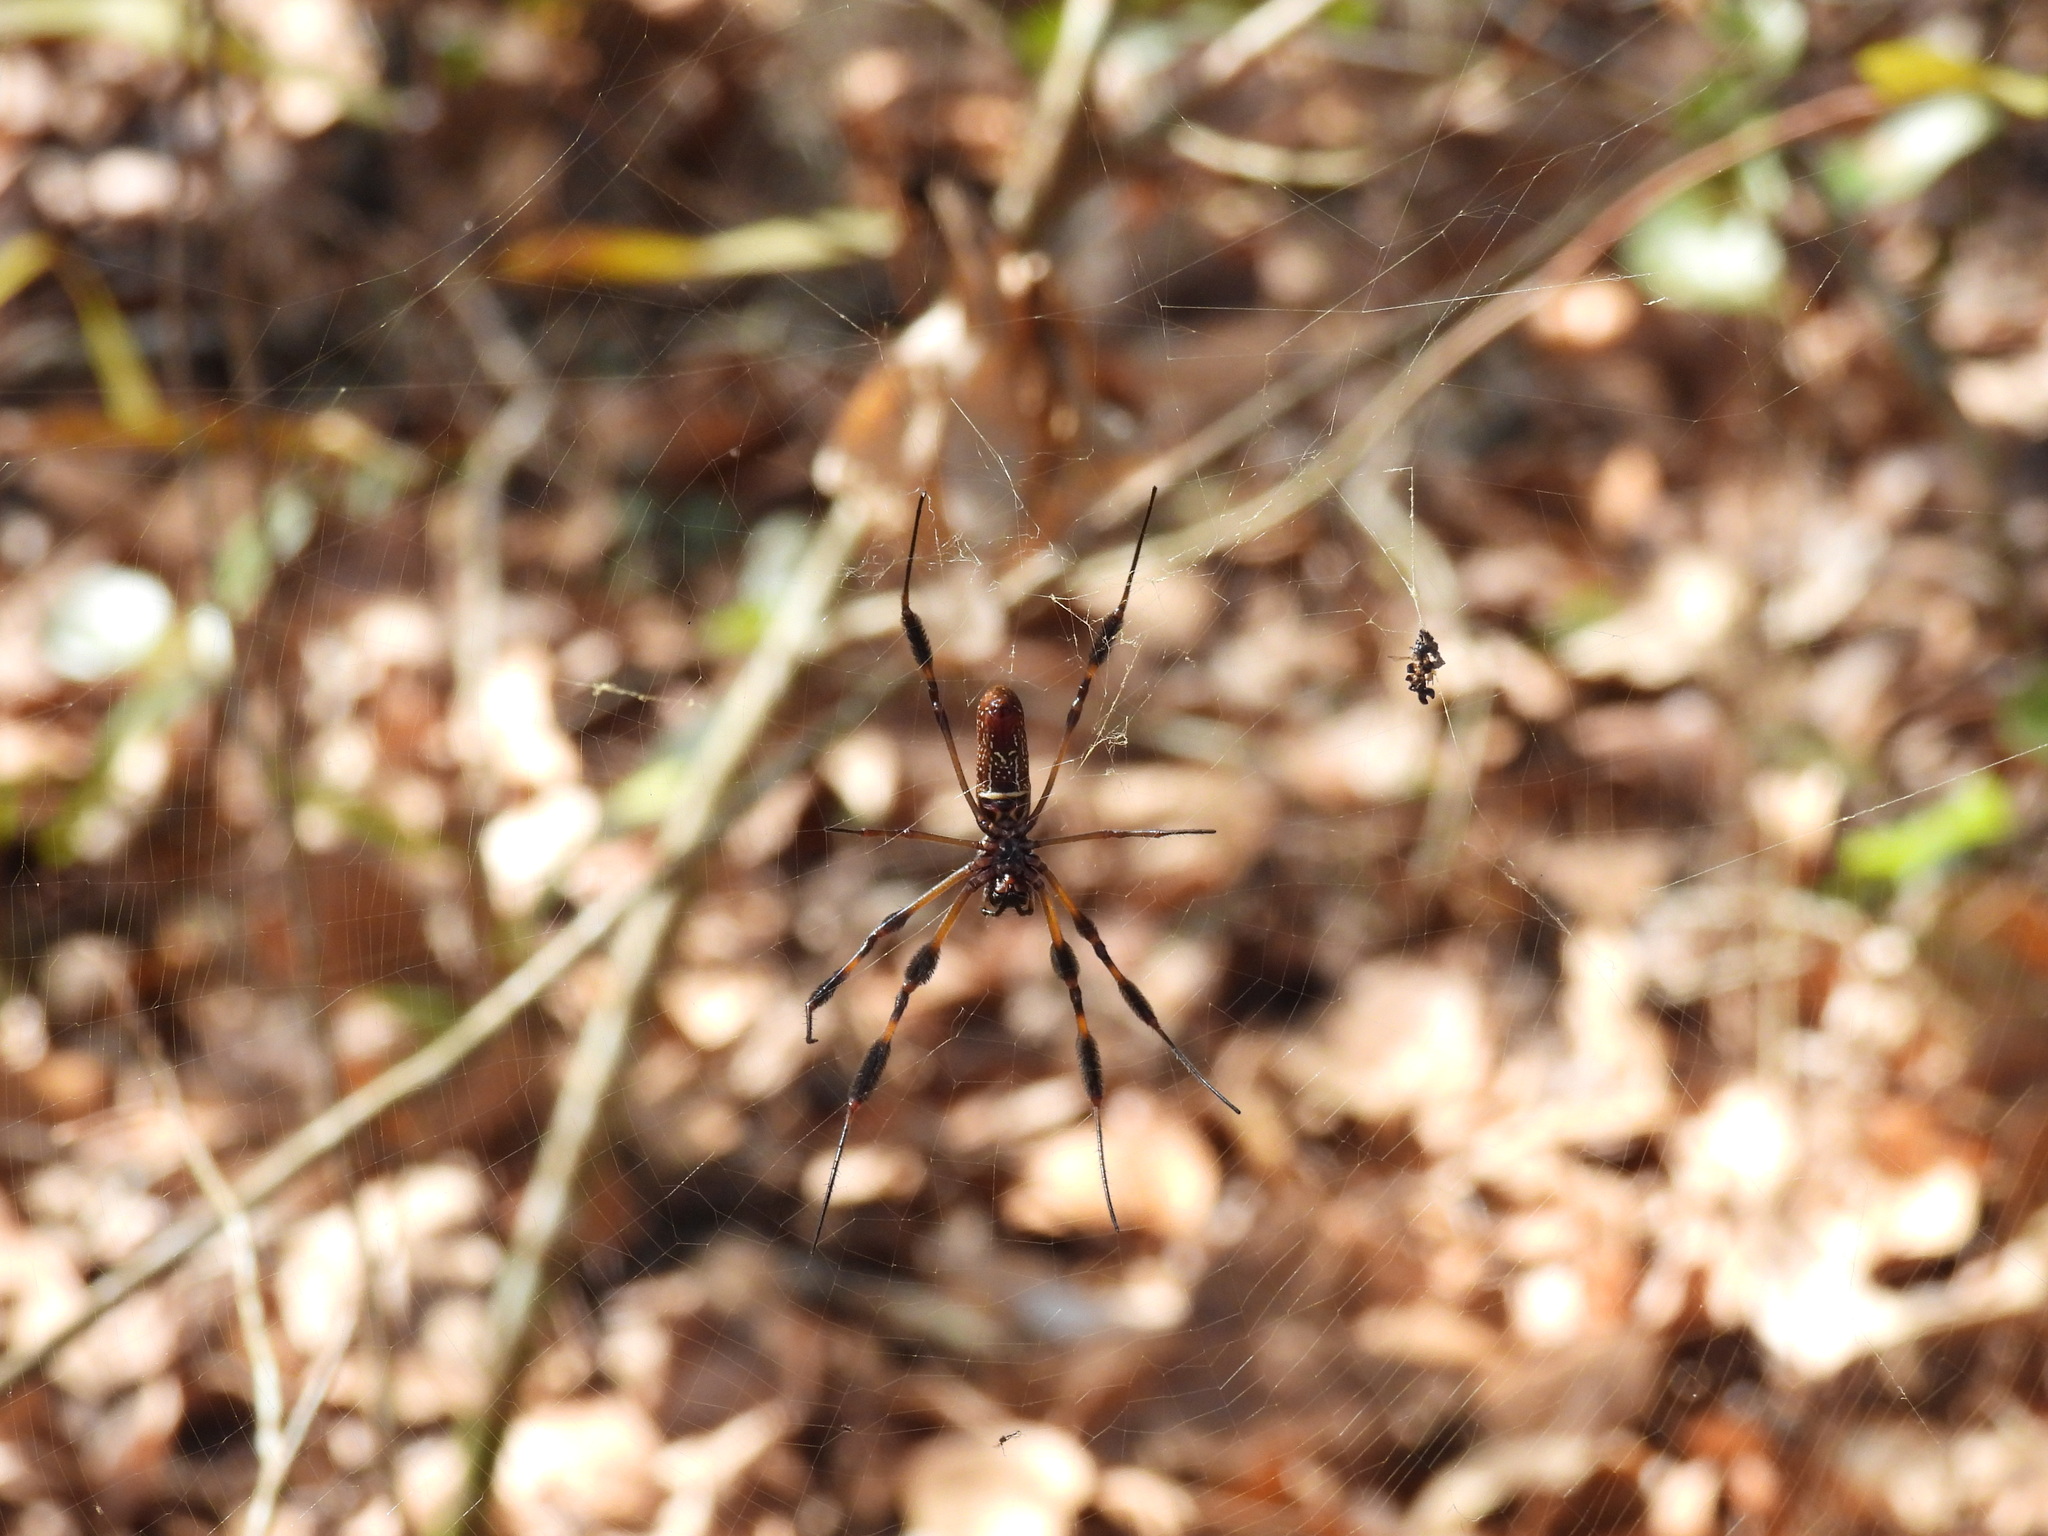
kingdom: Animalia
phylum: Arthropoda
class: Arachnida
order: Araneae
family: Araneidae
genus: Trichonephila
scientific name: Trichonephila clavipes
